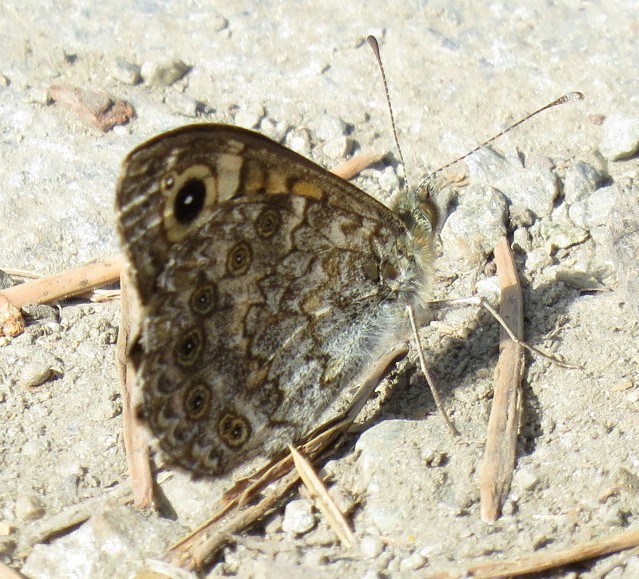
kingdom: Animalia
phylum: Arthropoda
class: Insecta
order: Lepidoptera
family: Nymphalidae
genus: Pararge
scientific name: Pararge Lasiommata megera
